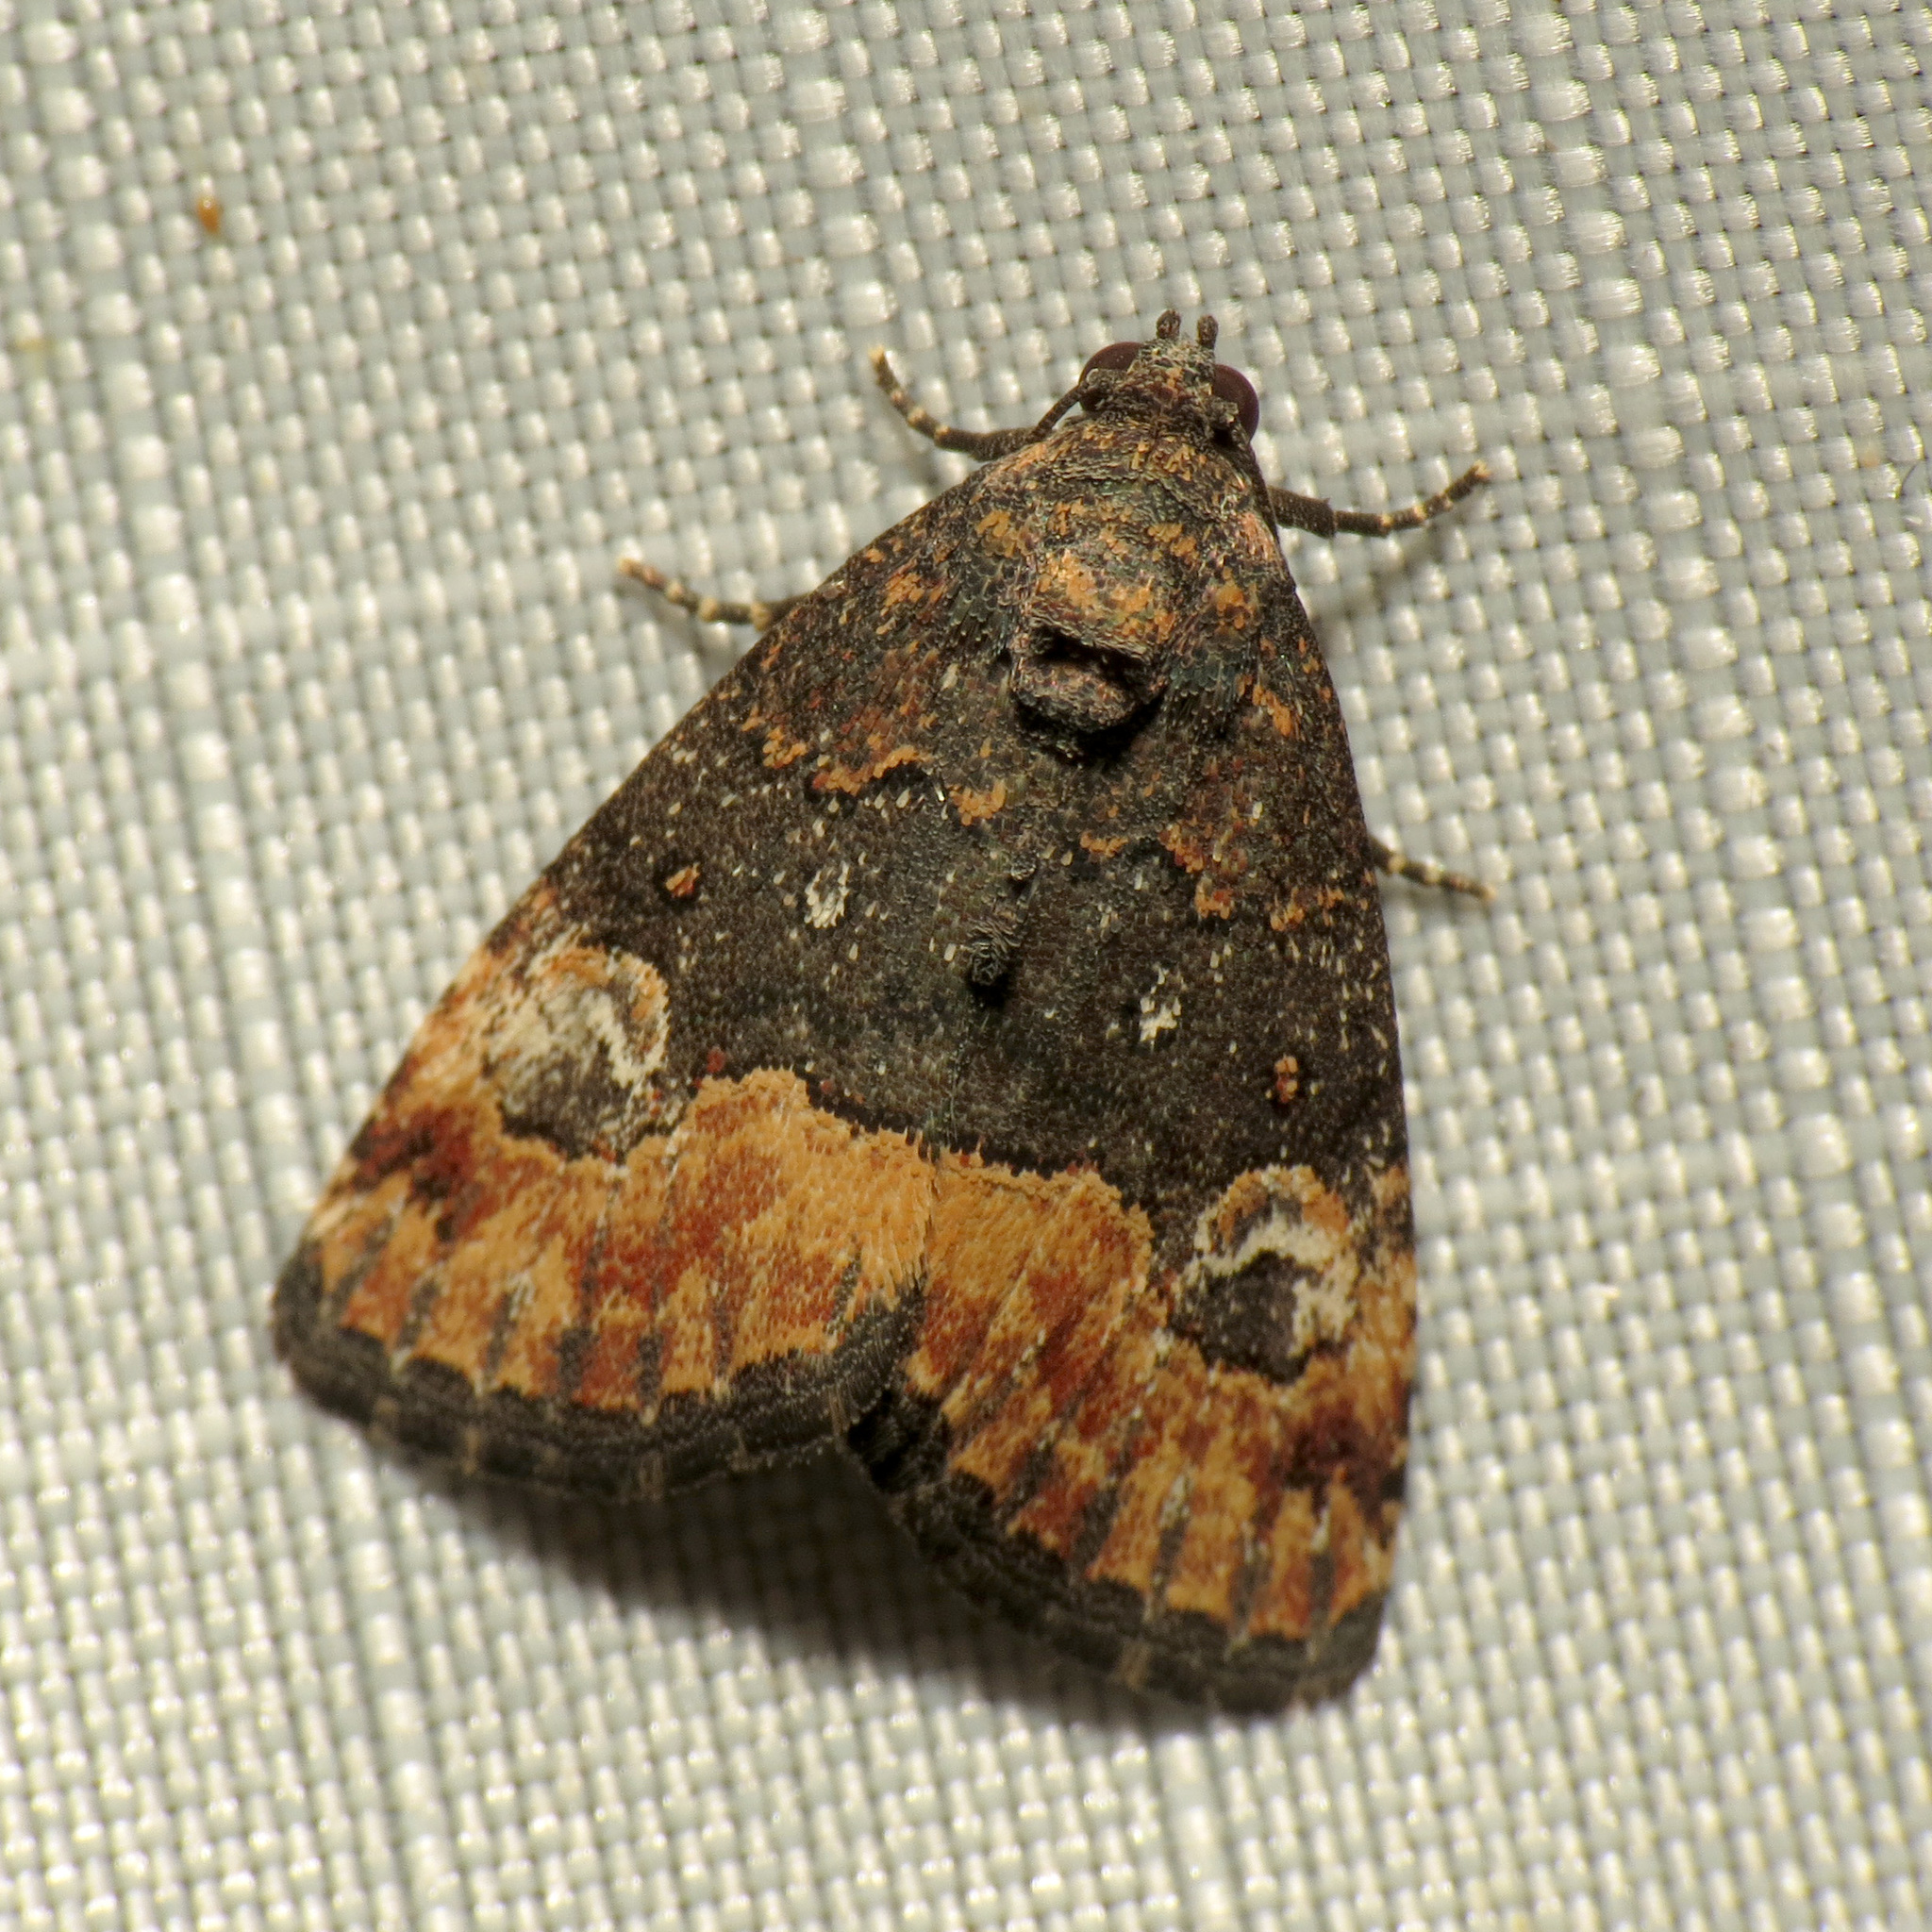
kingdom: Animalia
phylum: Arthropoda
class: Insecta
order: Lepidoptera
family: Noctuidae
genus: Ozarba
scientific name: Ozarba propera
